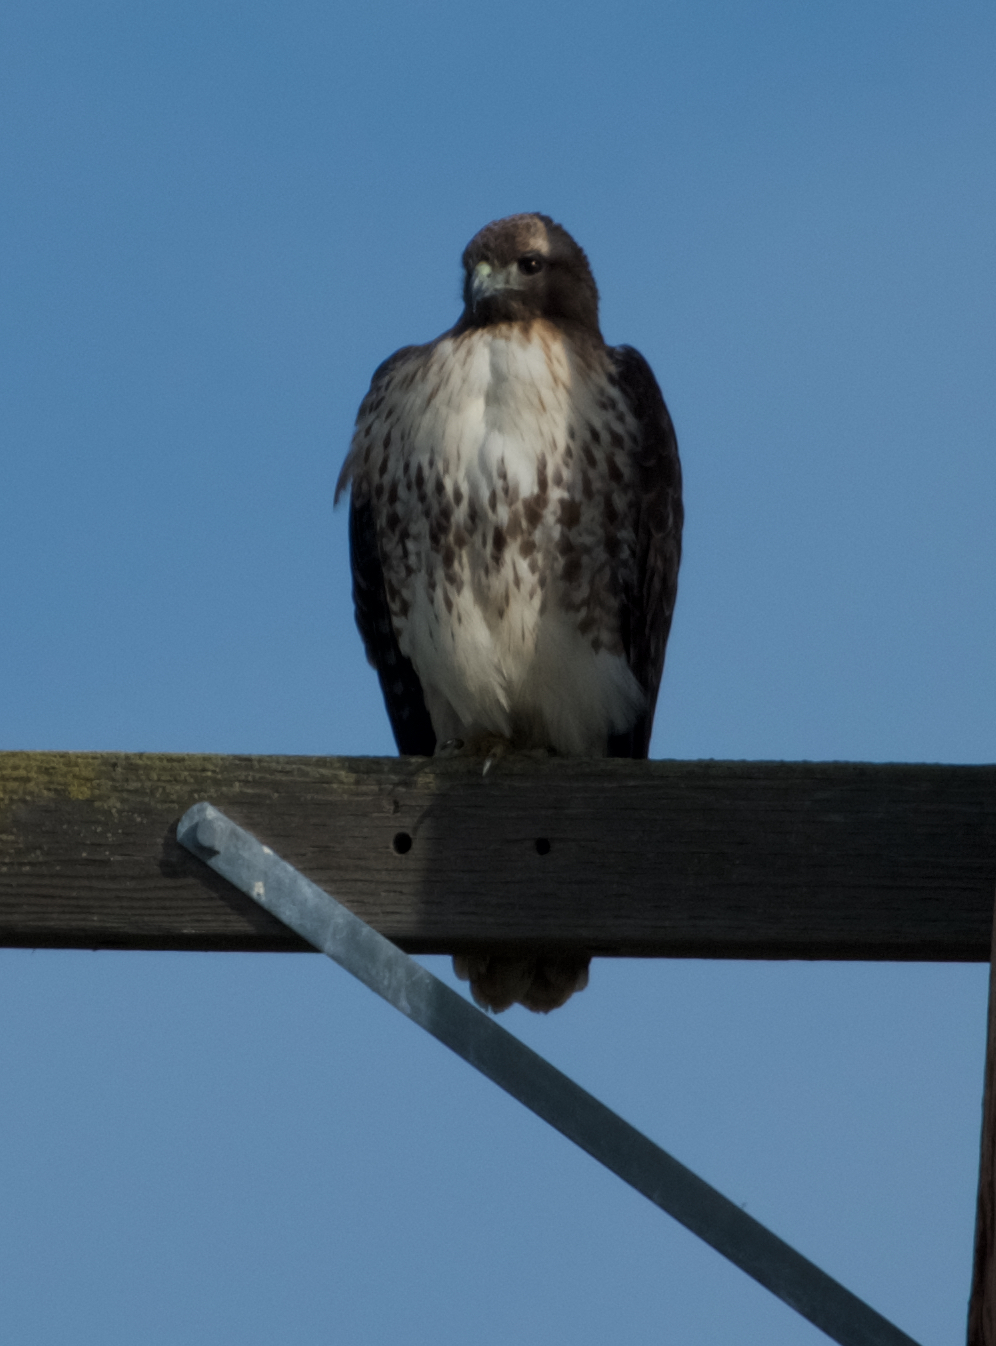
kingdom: Animalia
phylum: Chordata
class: Aves
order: Accipitriformes
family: Accipitridae
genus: Buteo
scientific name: Buteo jamaicensis
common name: Red-tailed hawk
